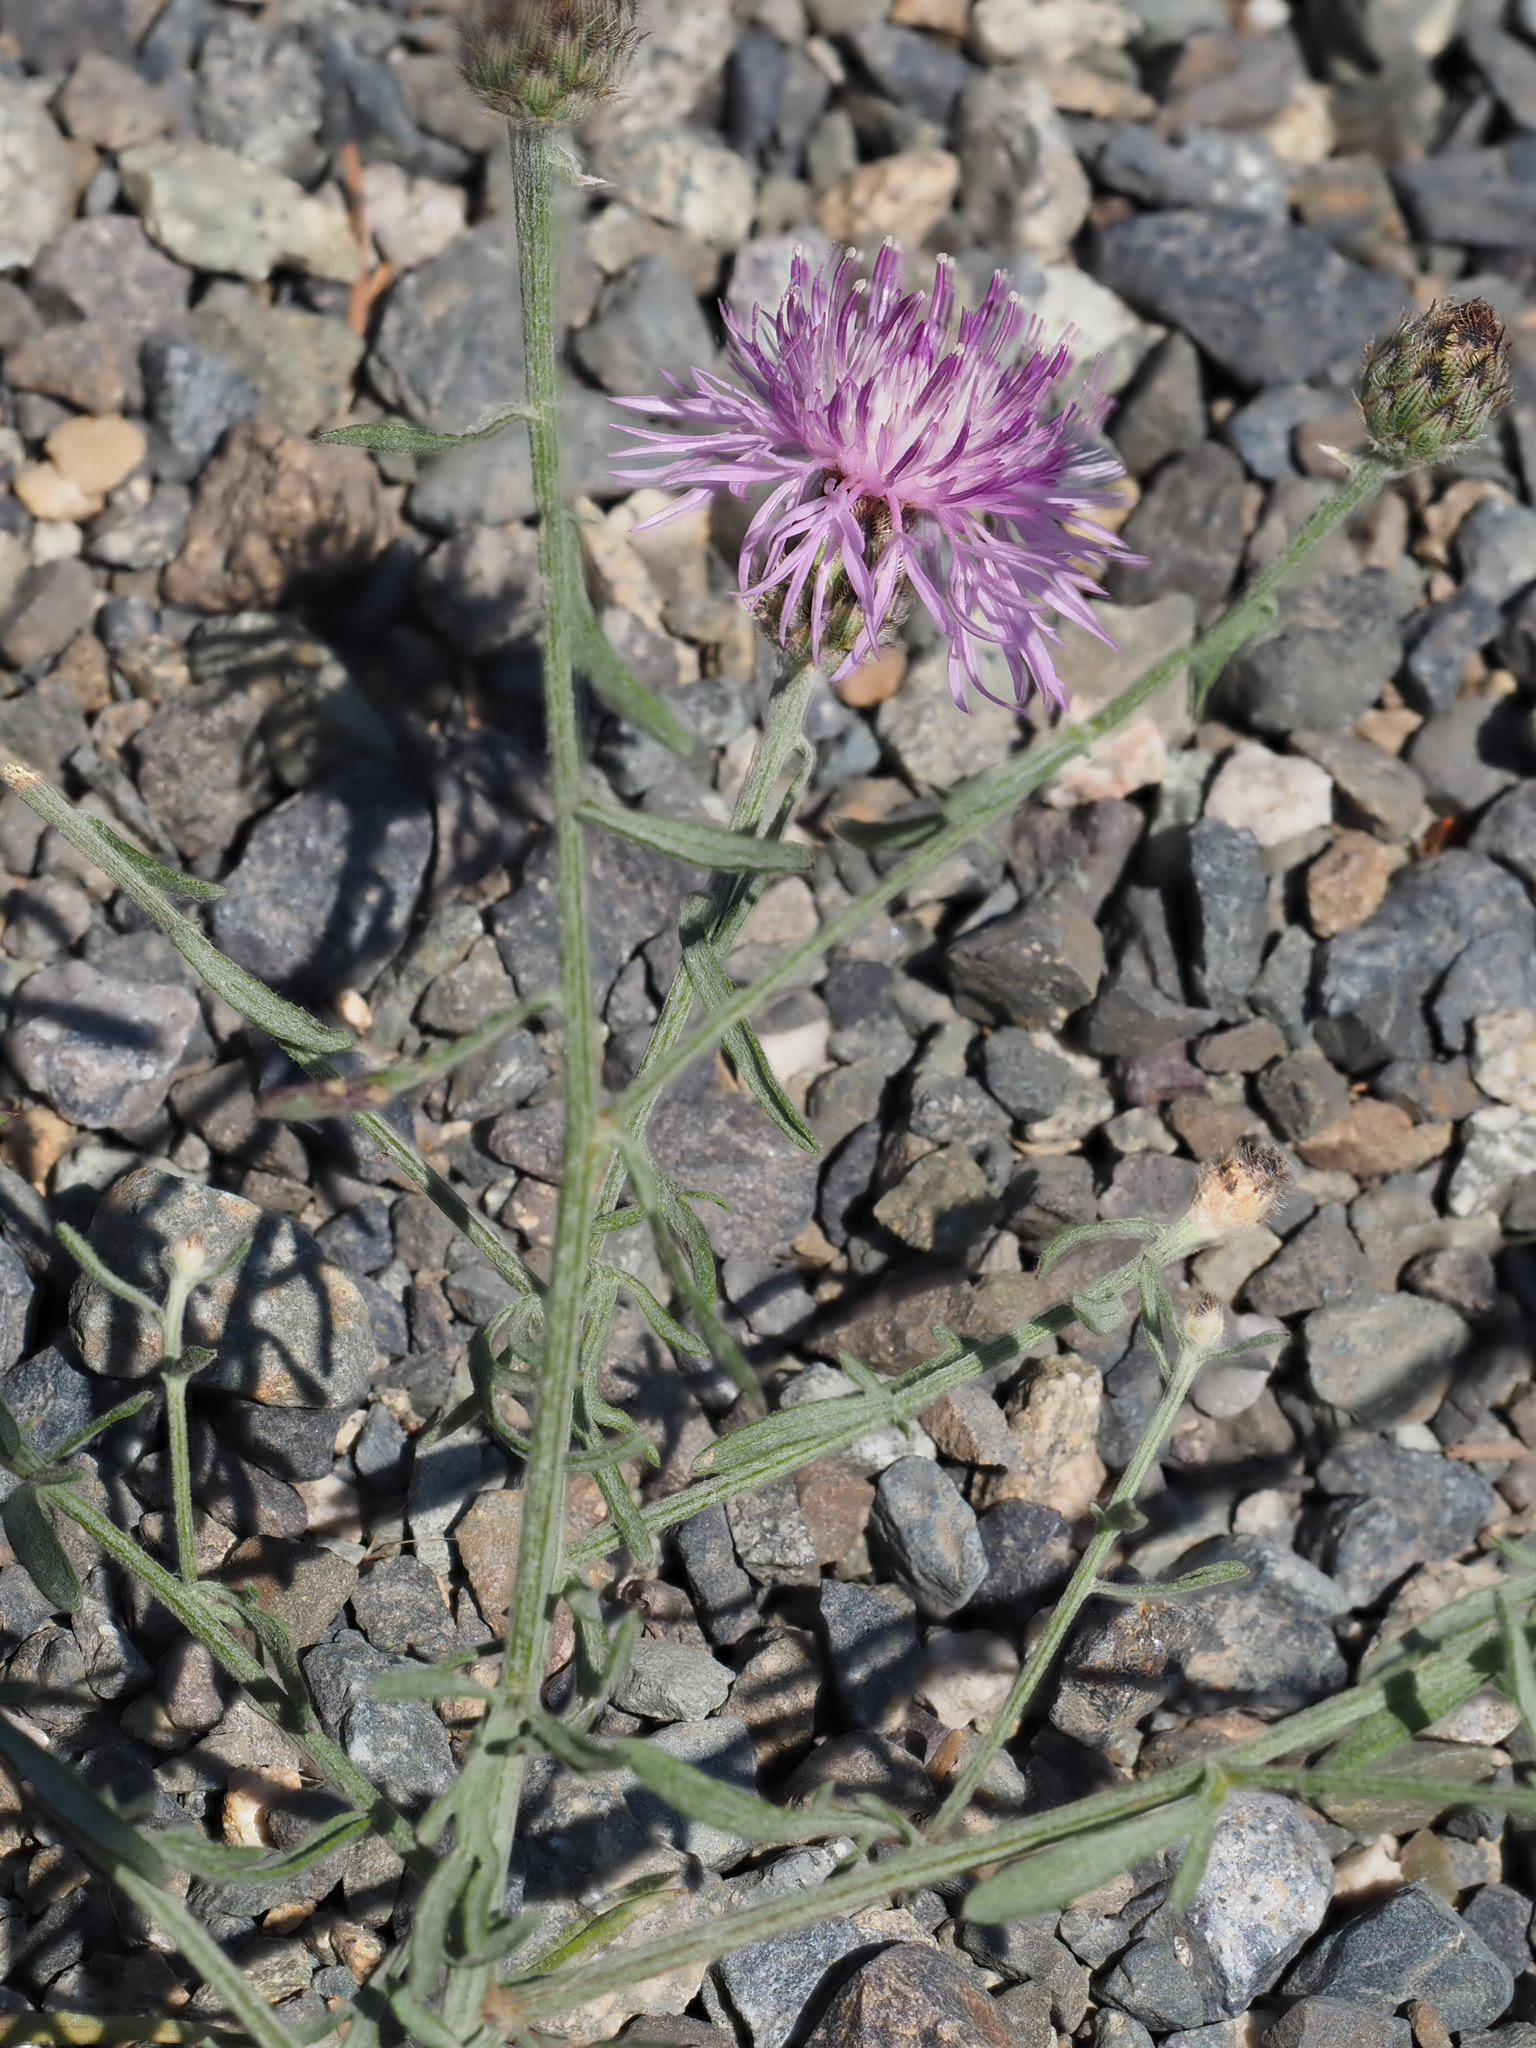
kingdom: Plantae
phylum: Tracheophyta
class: Magnoliopsida
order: Asterales
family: Asteraceae
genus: Centaurea
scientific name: Centaurea stoebe
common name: Spotted knapweed
